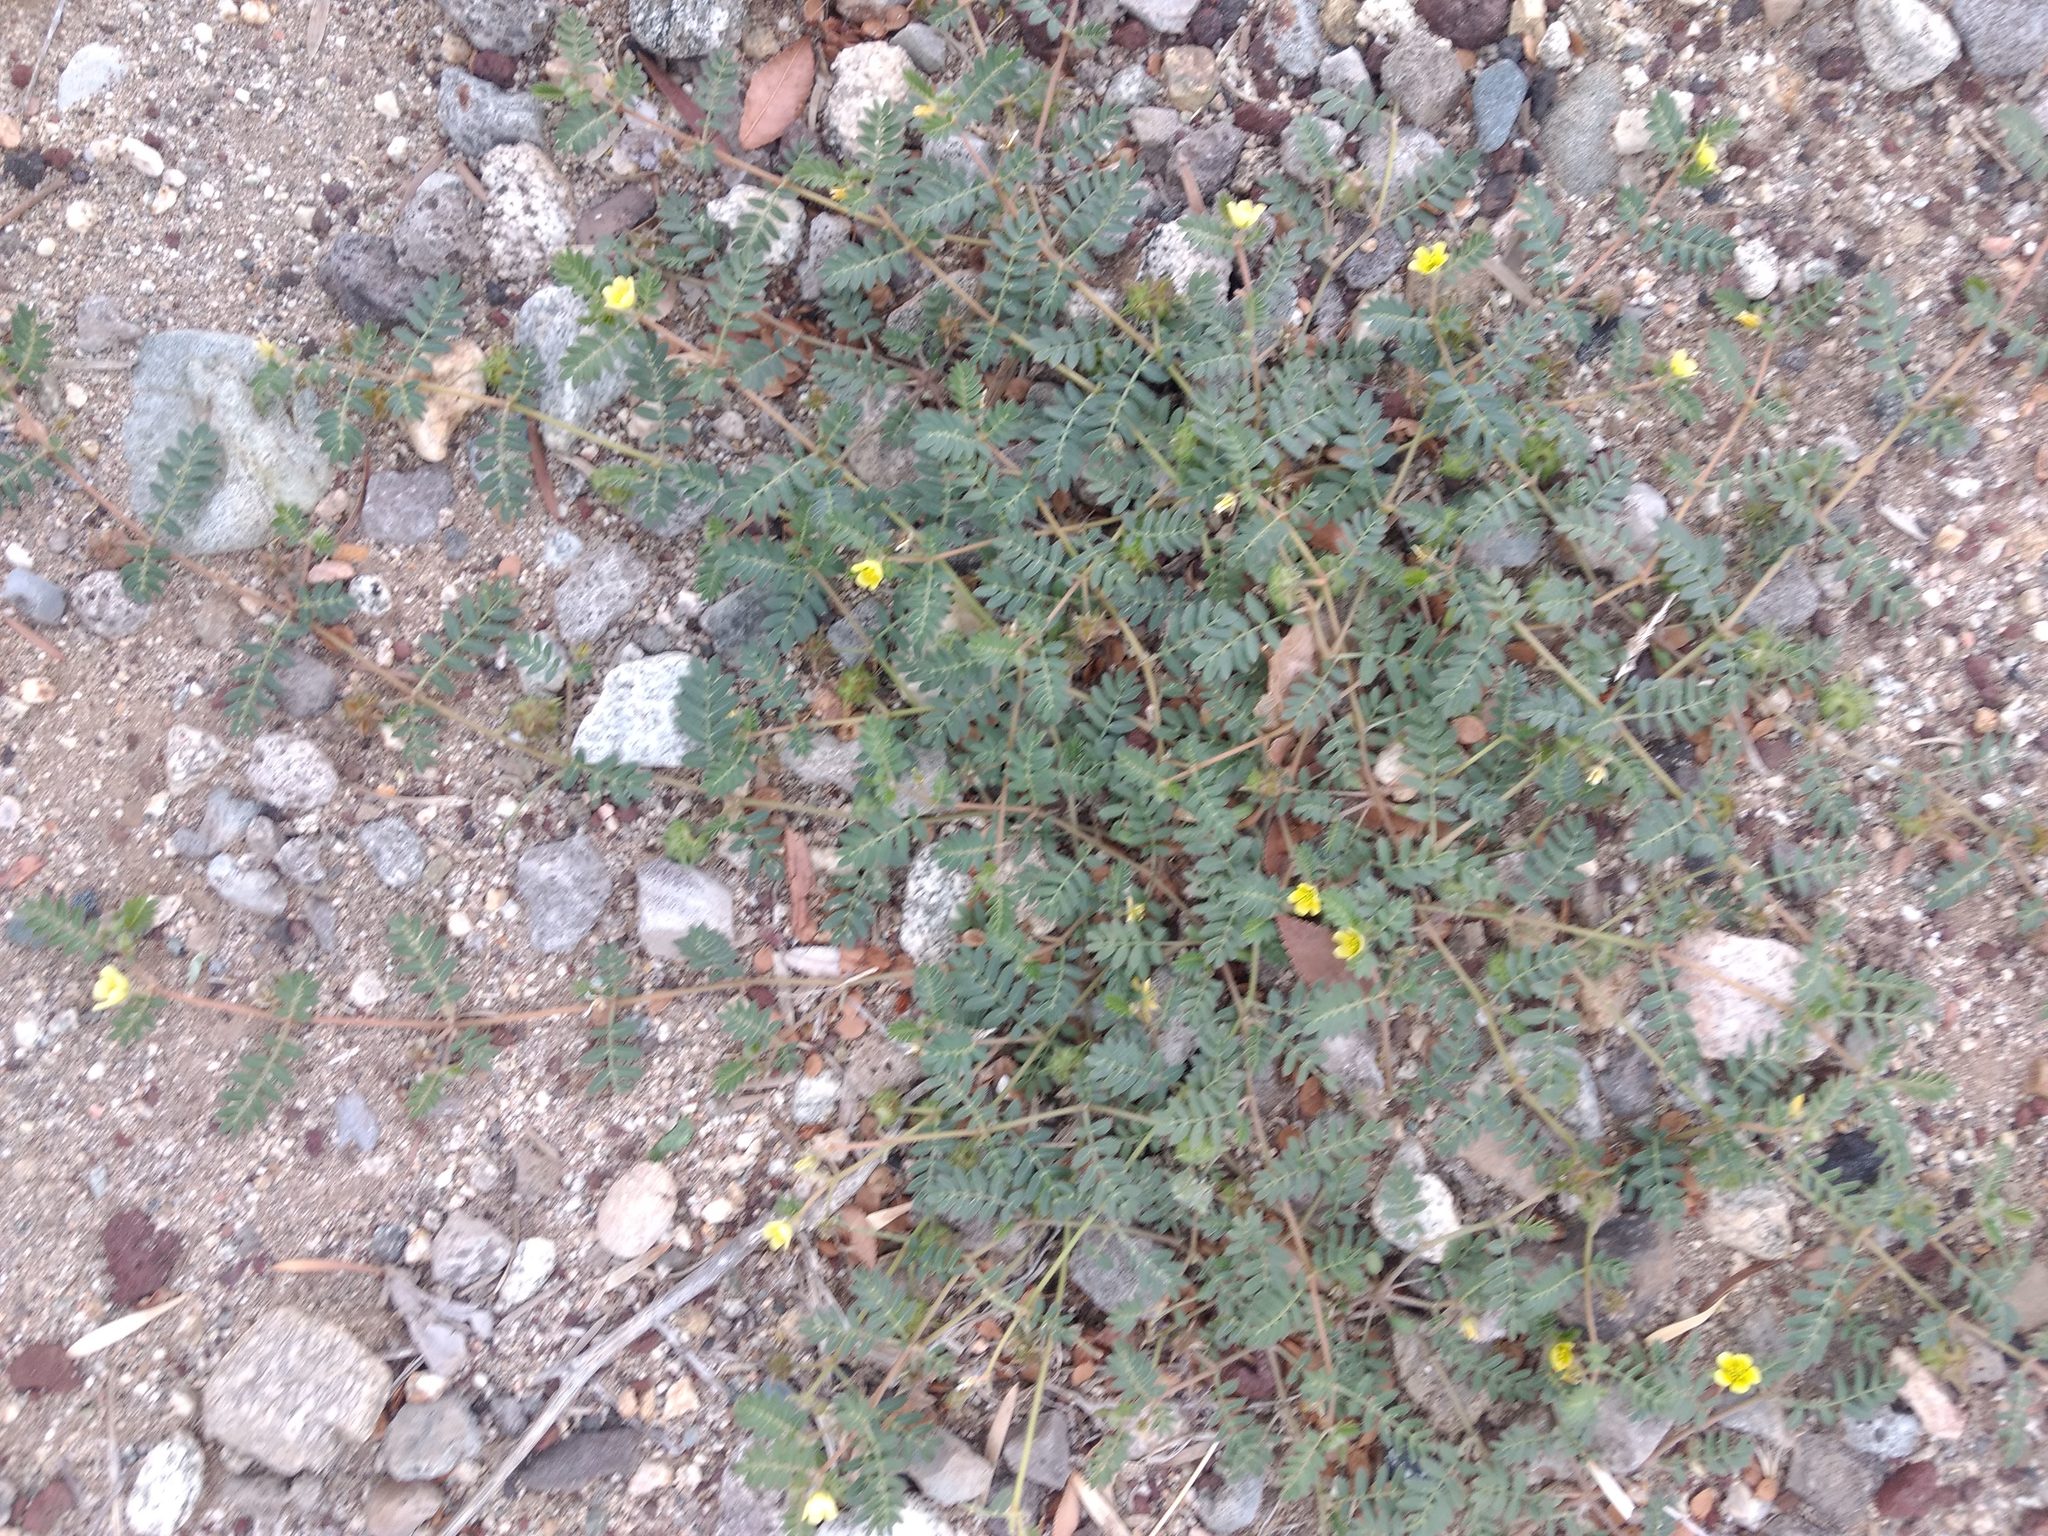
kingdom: Plantae
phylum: Tracheophyta
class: Magnoliopsida
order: Zygophyllales
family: Zygophyllaceae
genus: Tribulus
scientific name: Tribulus terrestris
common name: Puncturevine
